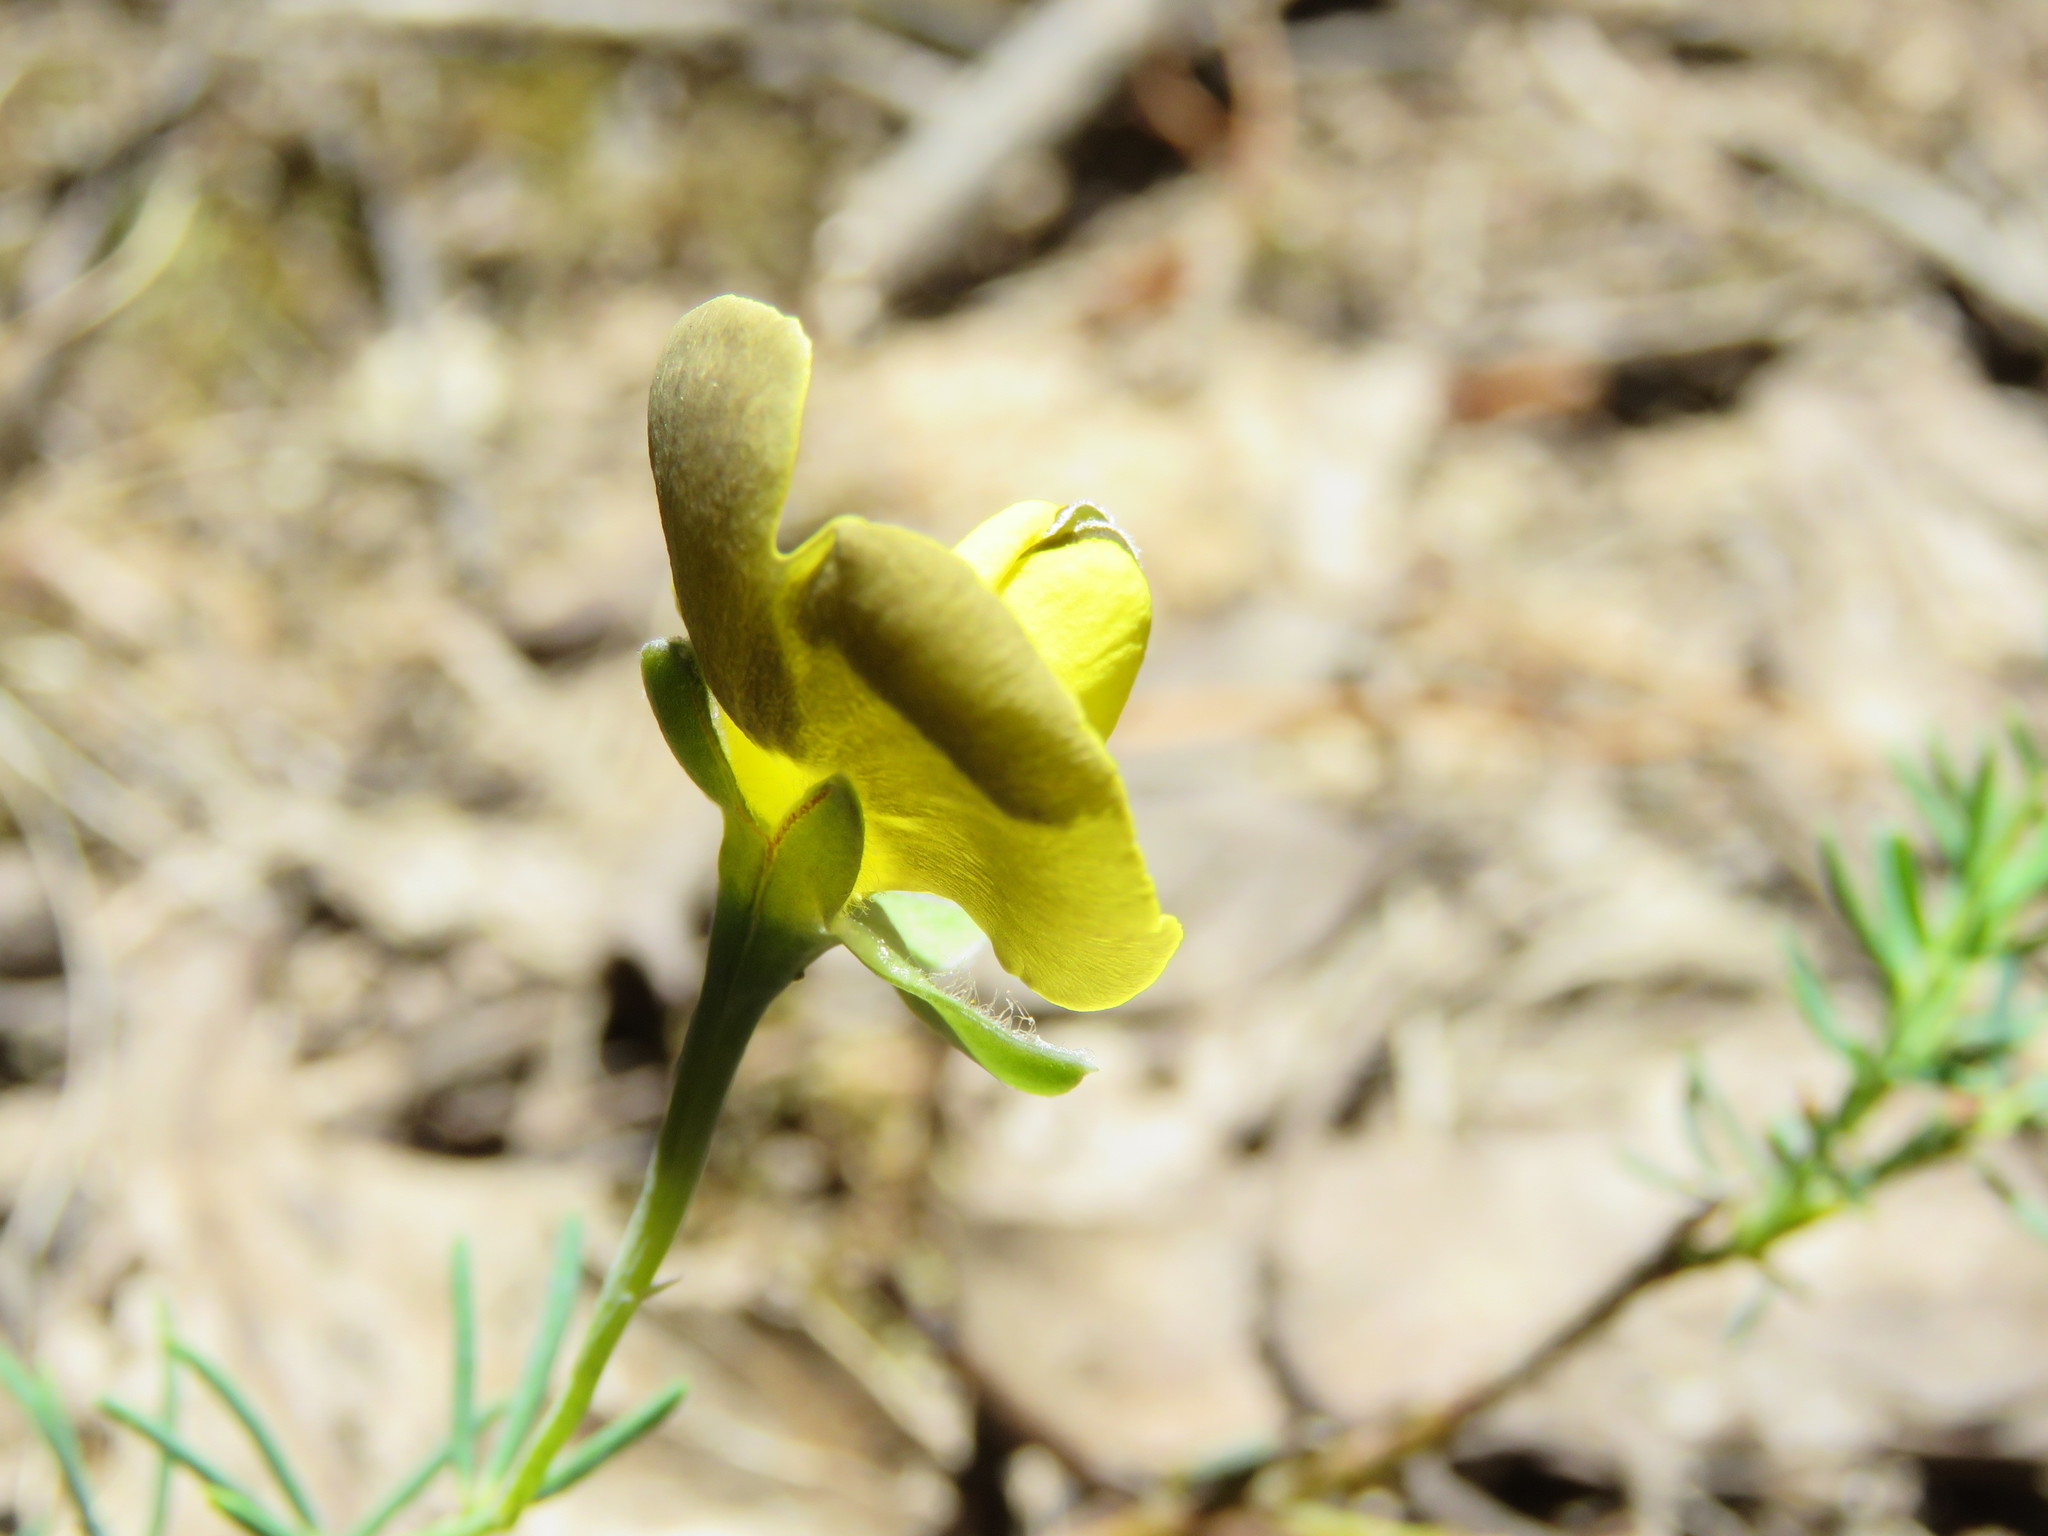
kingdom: Plantae
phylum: Tracheophyta
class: Magnoliopsida
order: Fabales
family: Fabaceae
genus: Gompholobium
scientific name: Gompholobium huegelii
